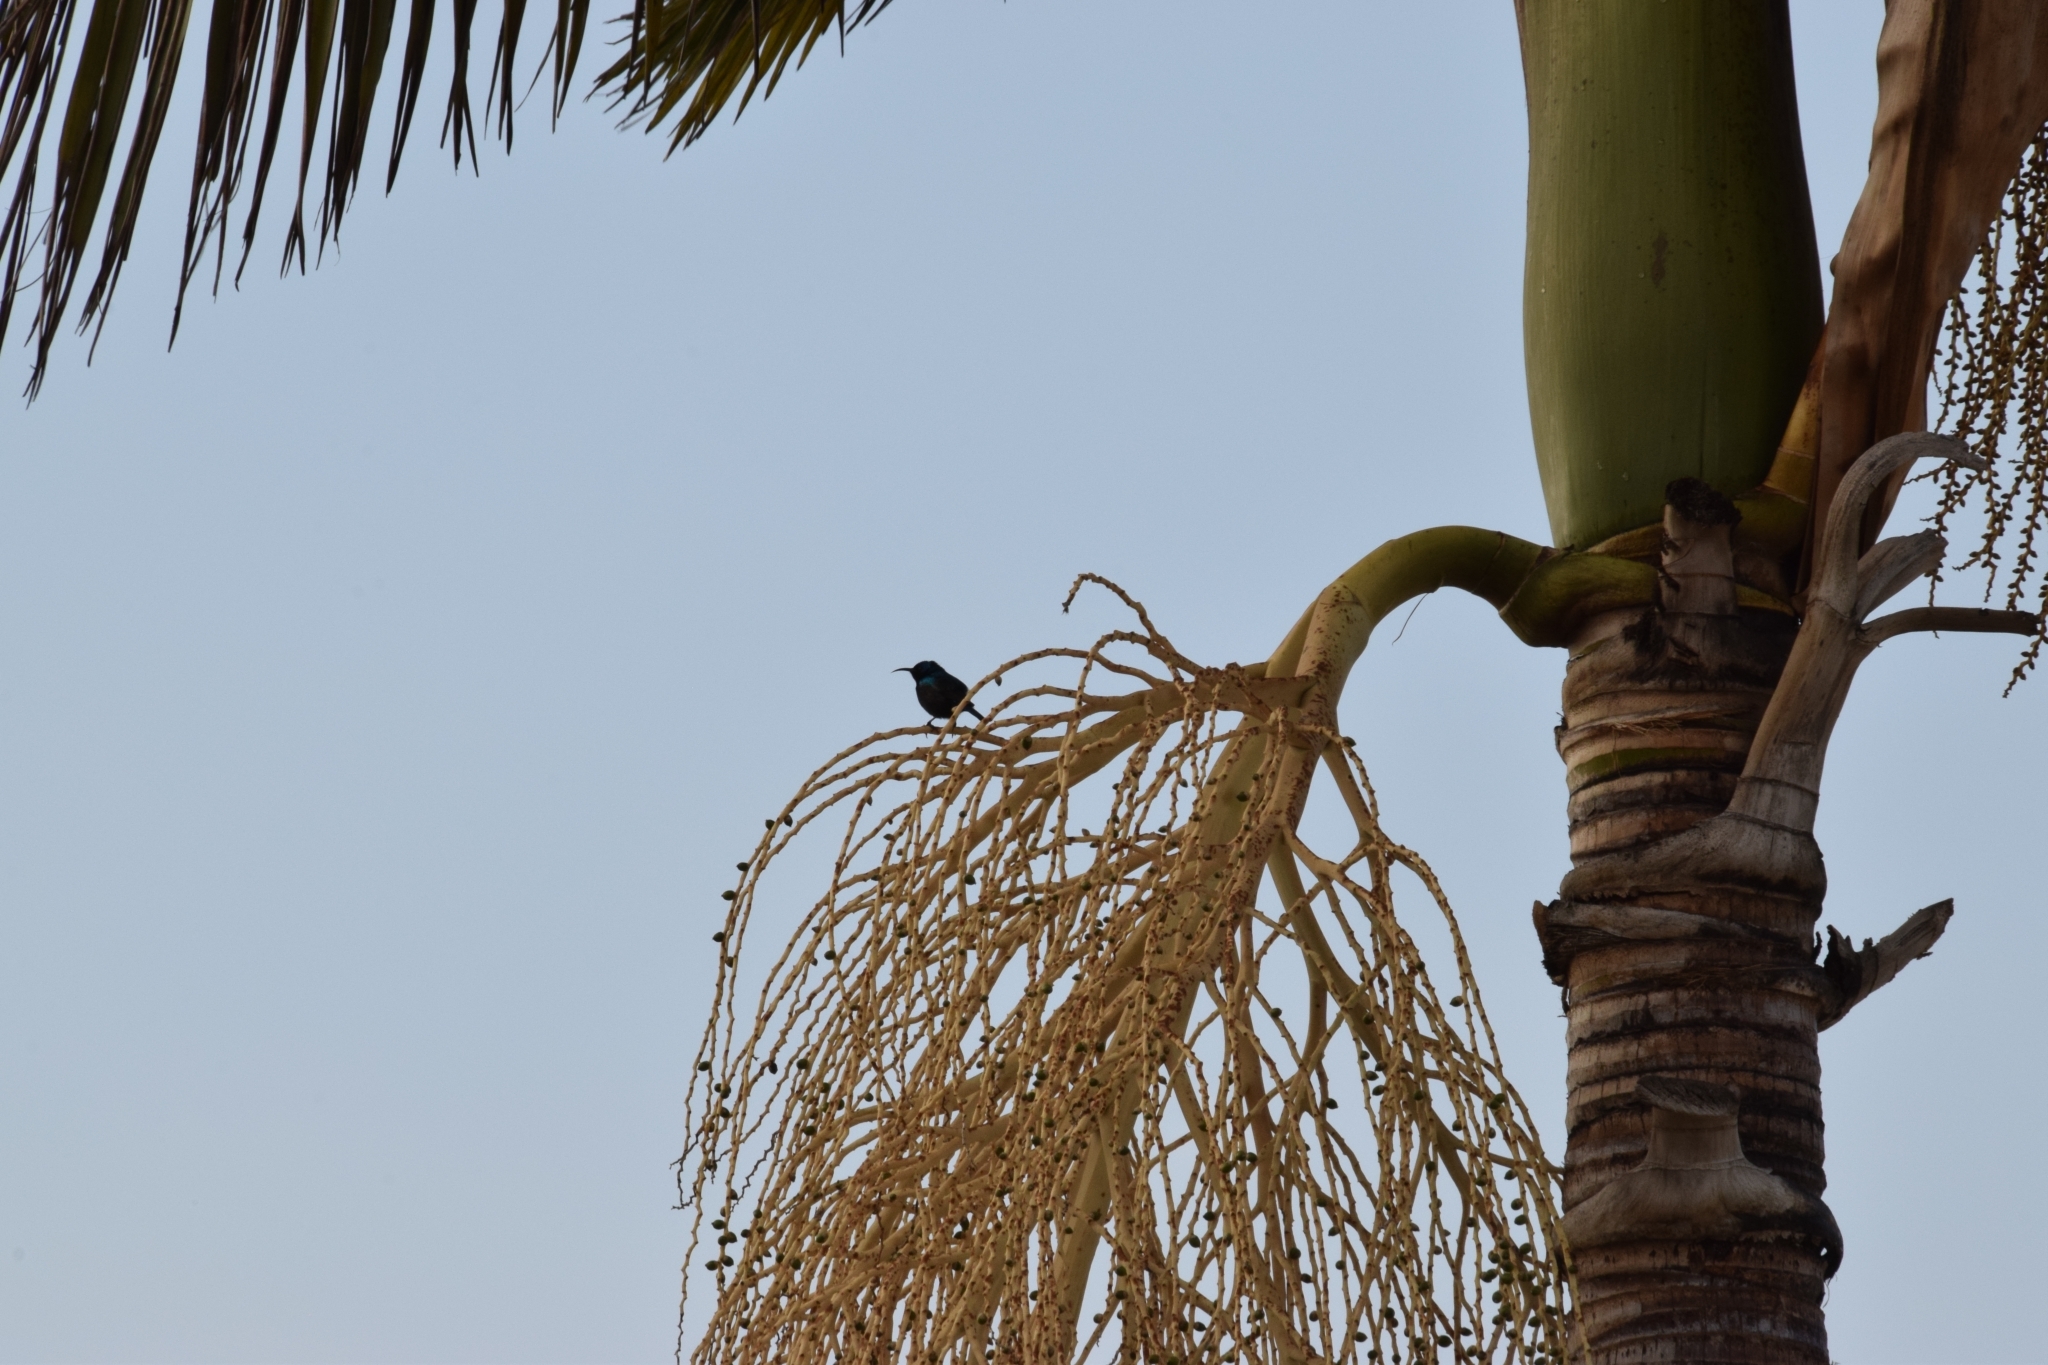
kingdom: Animalia
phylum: Chordata
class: Aves
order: Passeriformes
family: Nectariniidae
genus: Cinnyris
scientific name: Cinnyris osea
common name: Palestine sunbird
